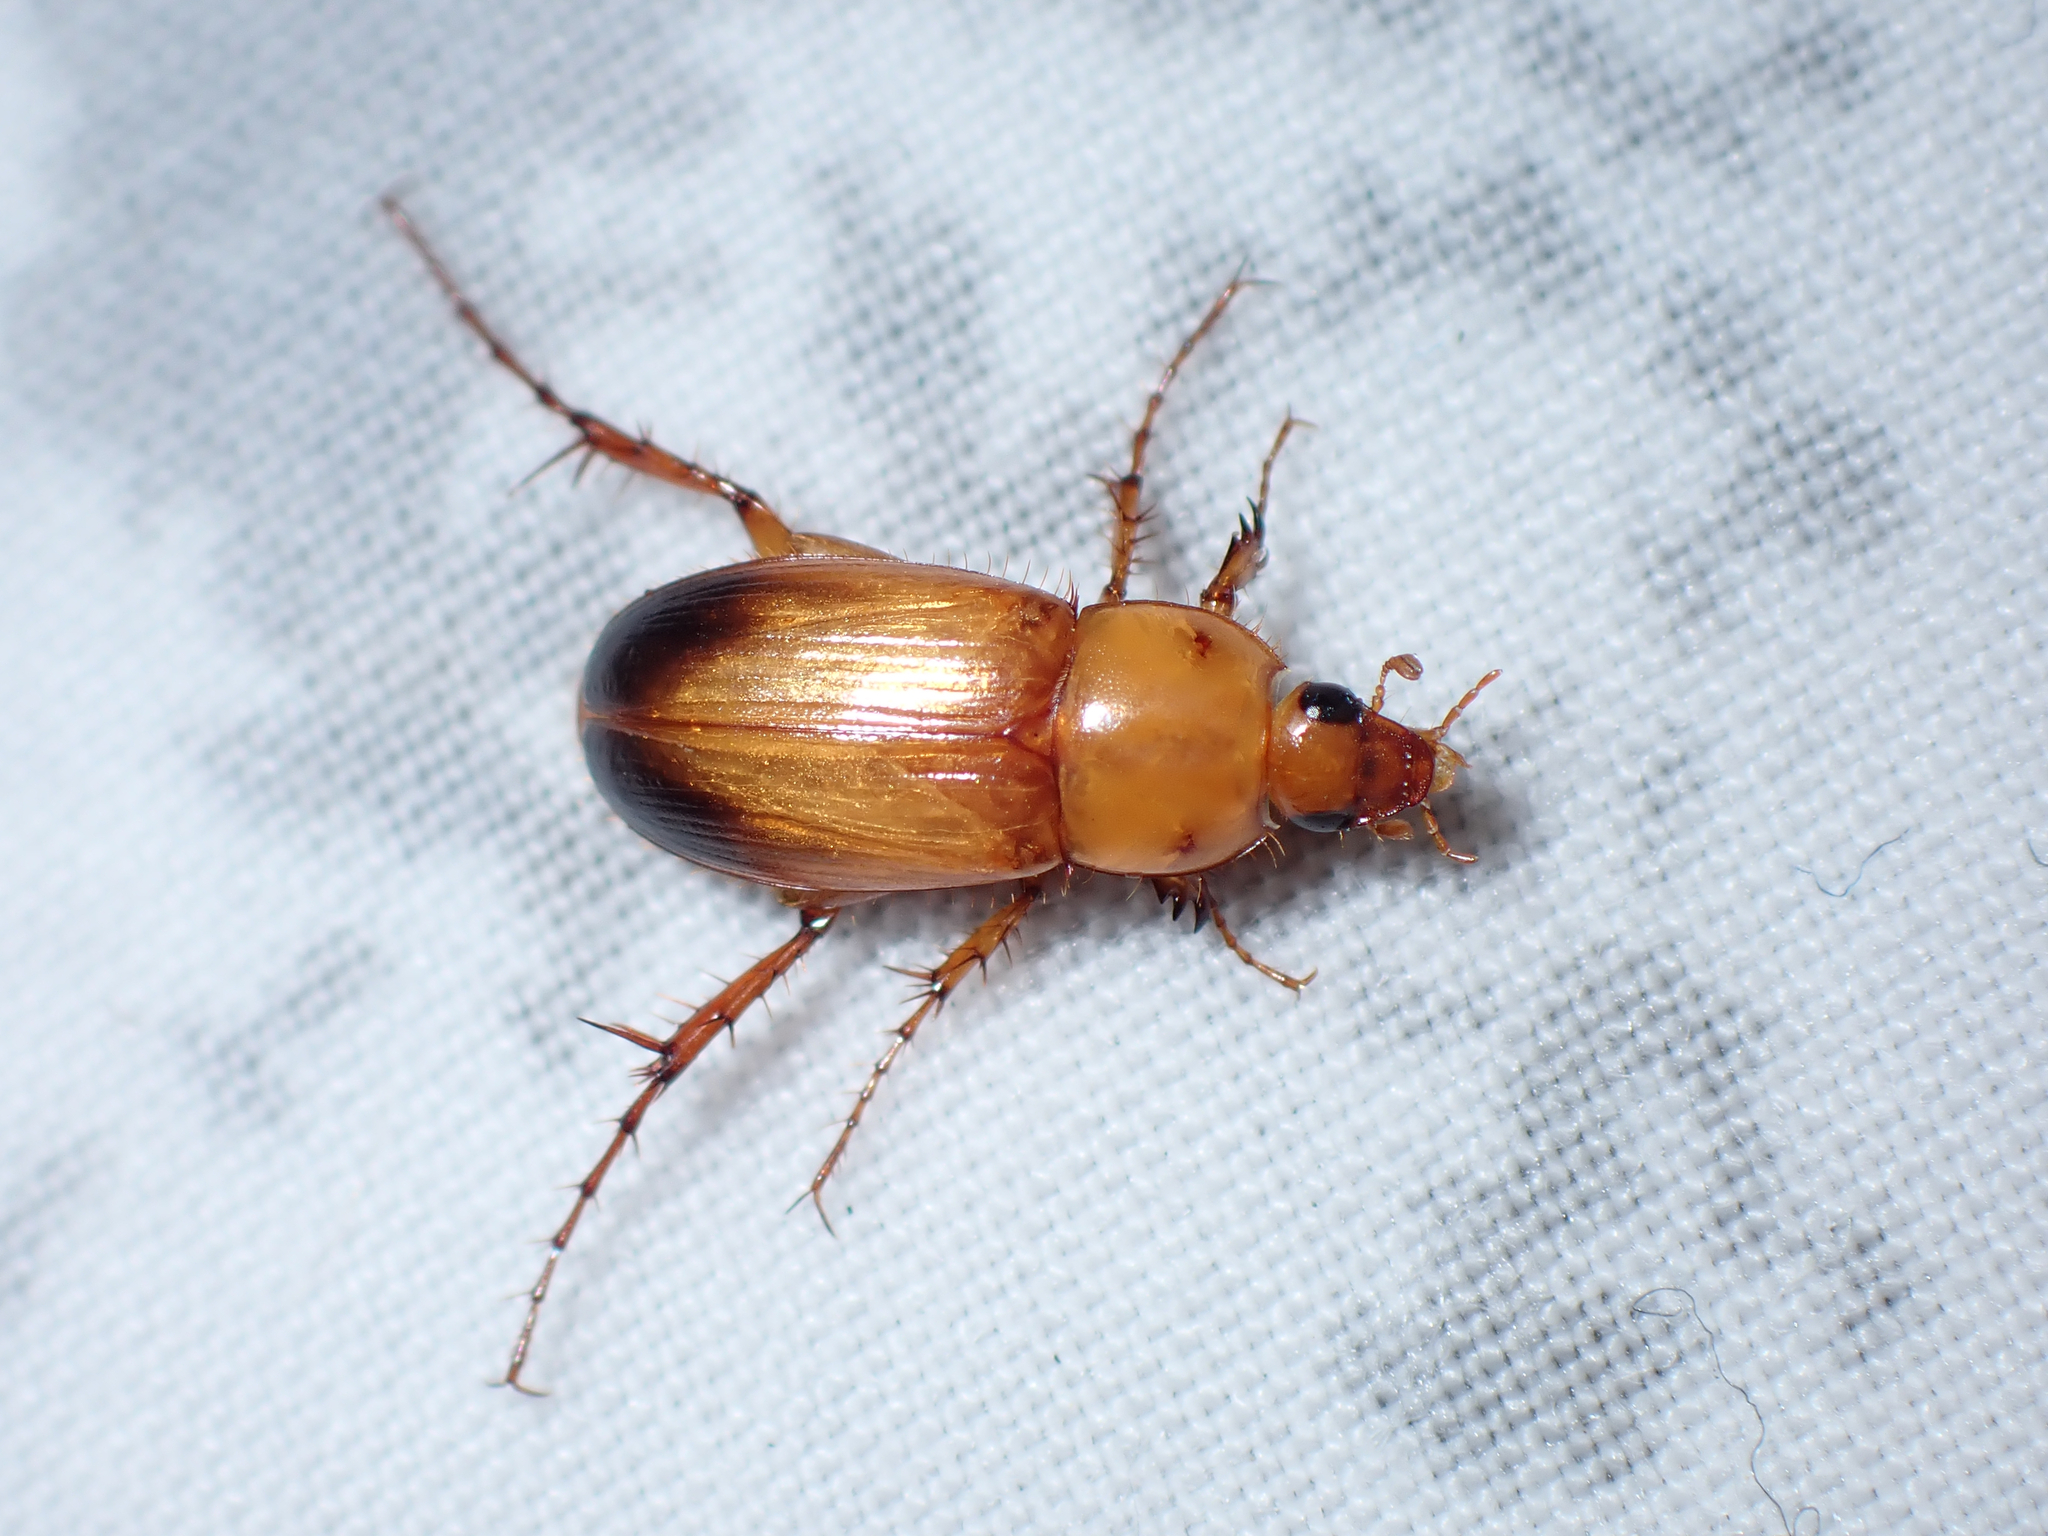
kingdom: Animalia
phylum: Arthropoda
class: Insecta
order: Coleoptera
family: Scarabaeidae
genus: Phyllotocus
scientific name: Phyllotocus macleayi
